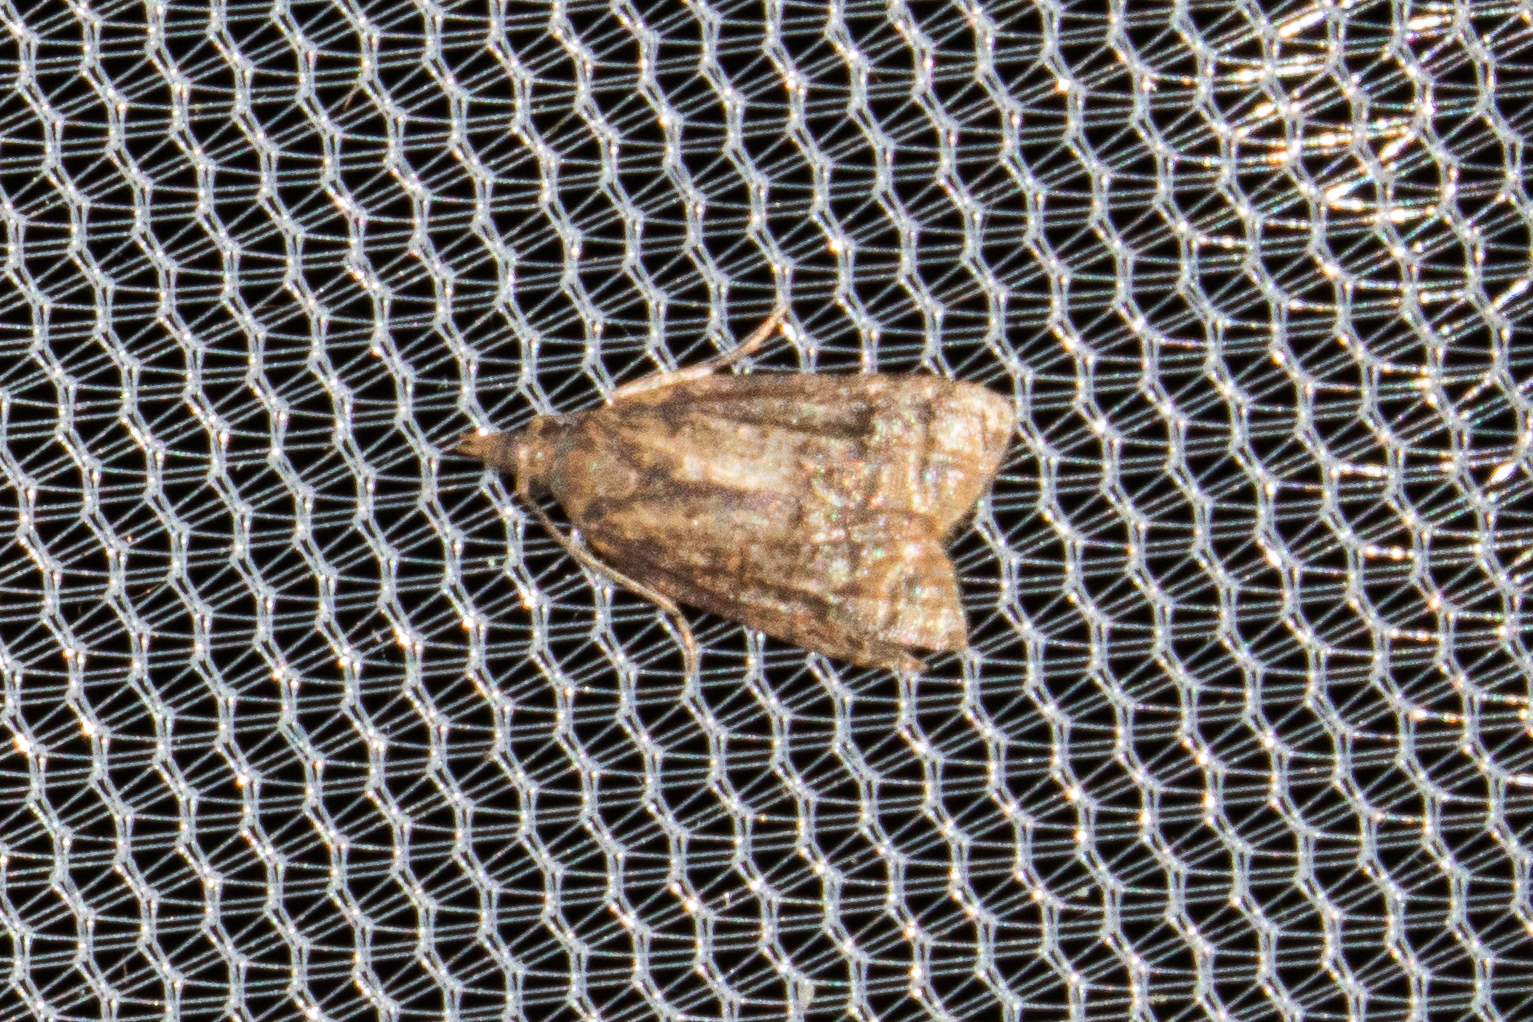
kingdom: Animalia
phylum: Arthropoda
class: Insecta
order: Lepidoptera
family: Tortricidae
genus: Platynota
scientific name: Platynota idaeusalis
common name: Tufted apple bud moth
